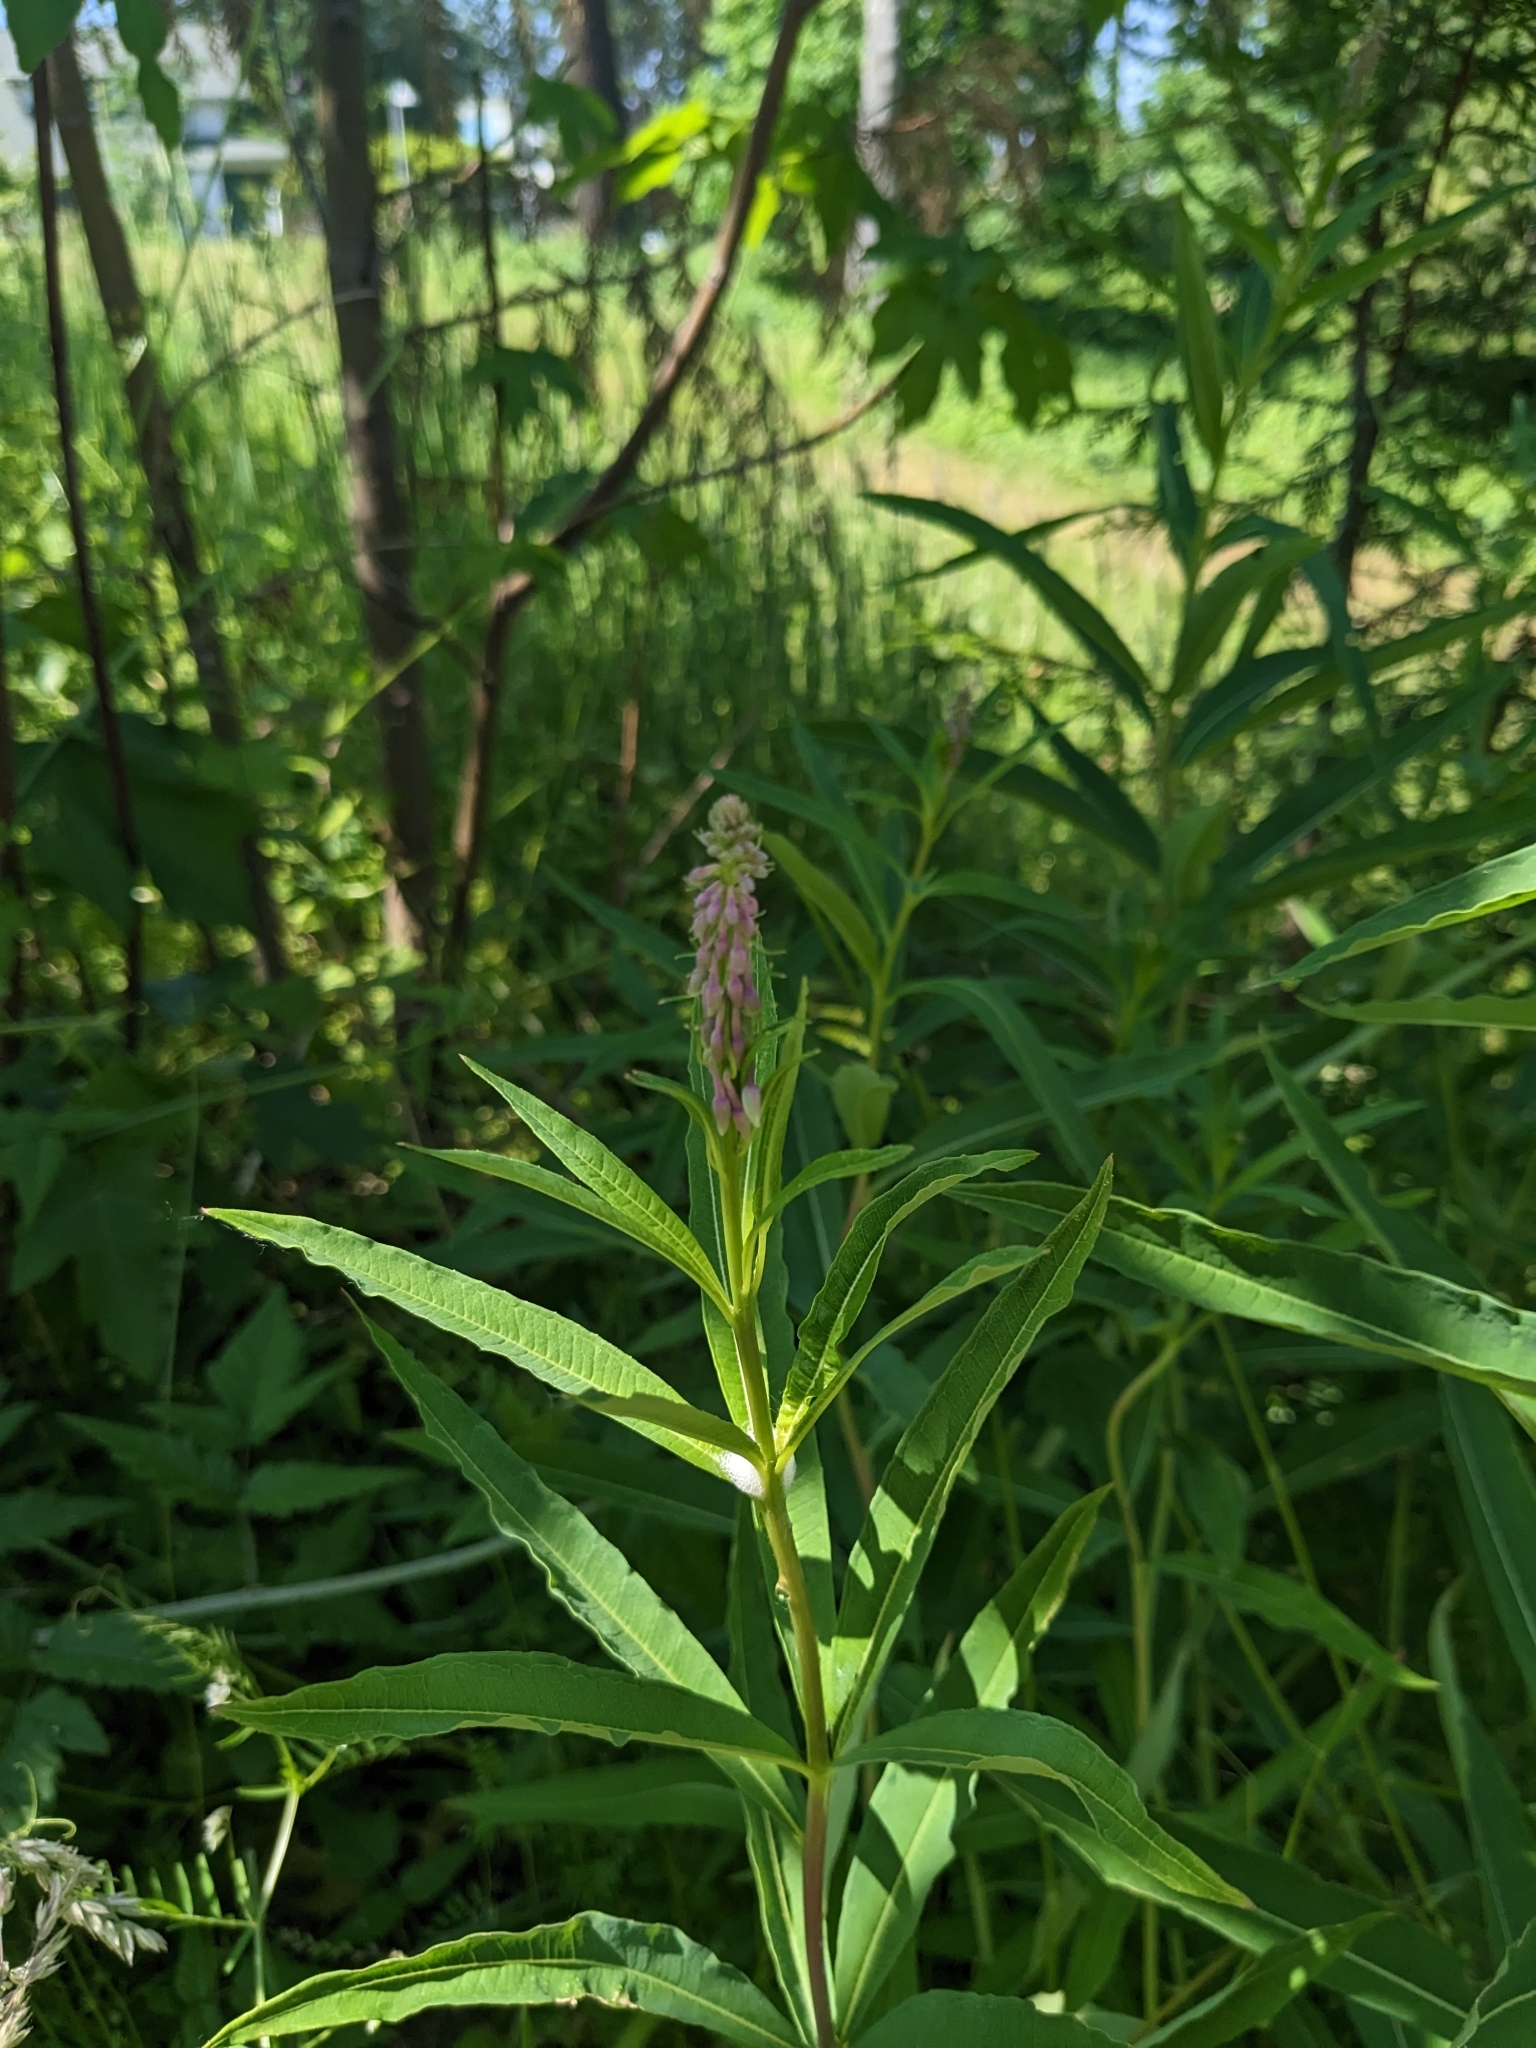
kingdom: Plantae
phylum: Tracheophyta
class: Magnoliopsida
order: Myrtales
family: Onagraceae
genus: Chamaenerion
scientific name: Chamaenerion angustifolium
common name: Fireweed
